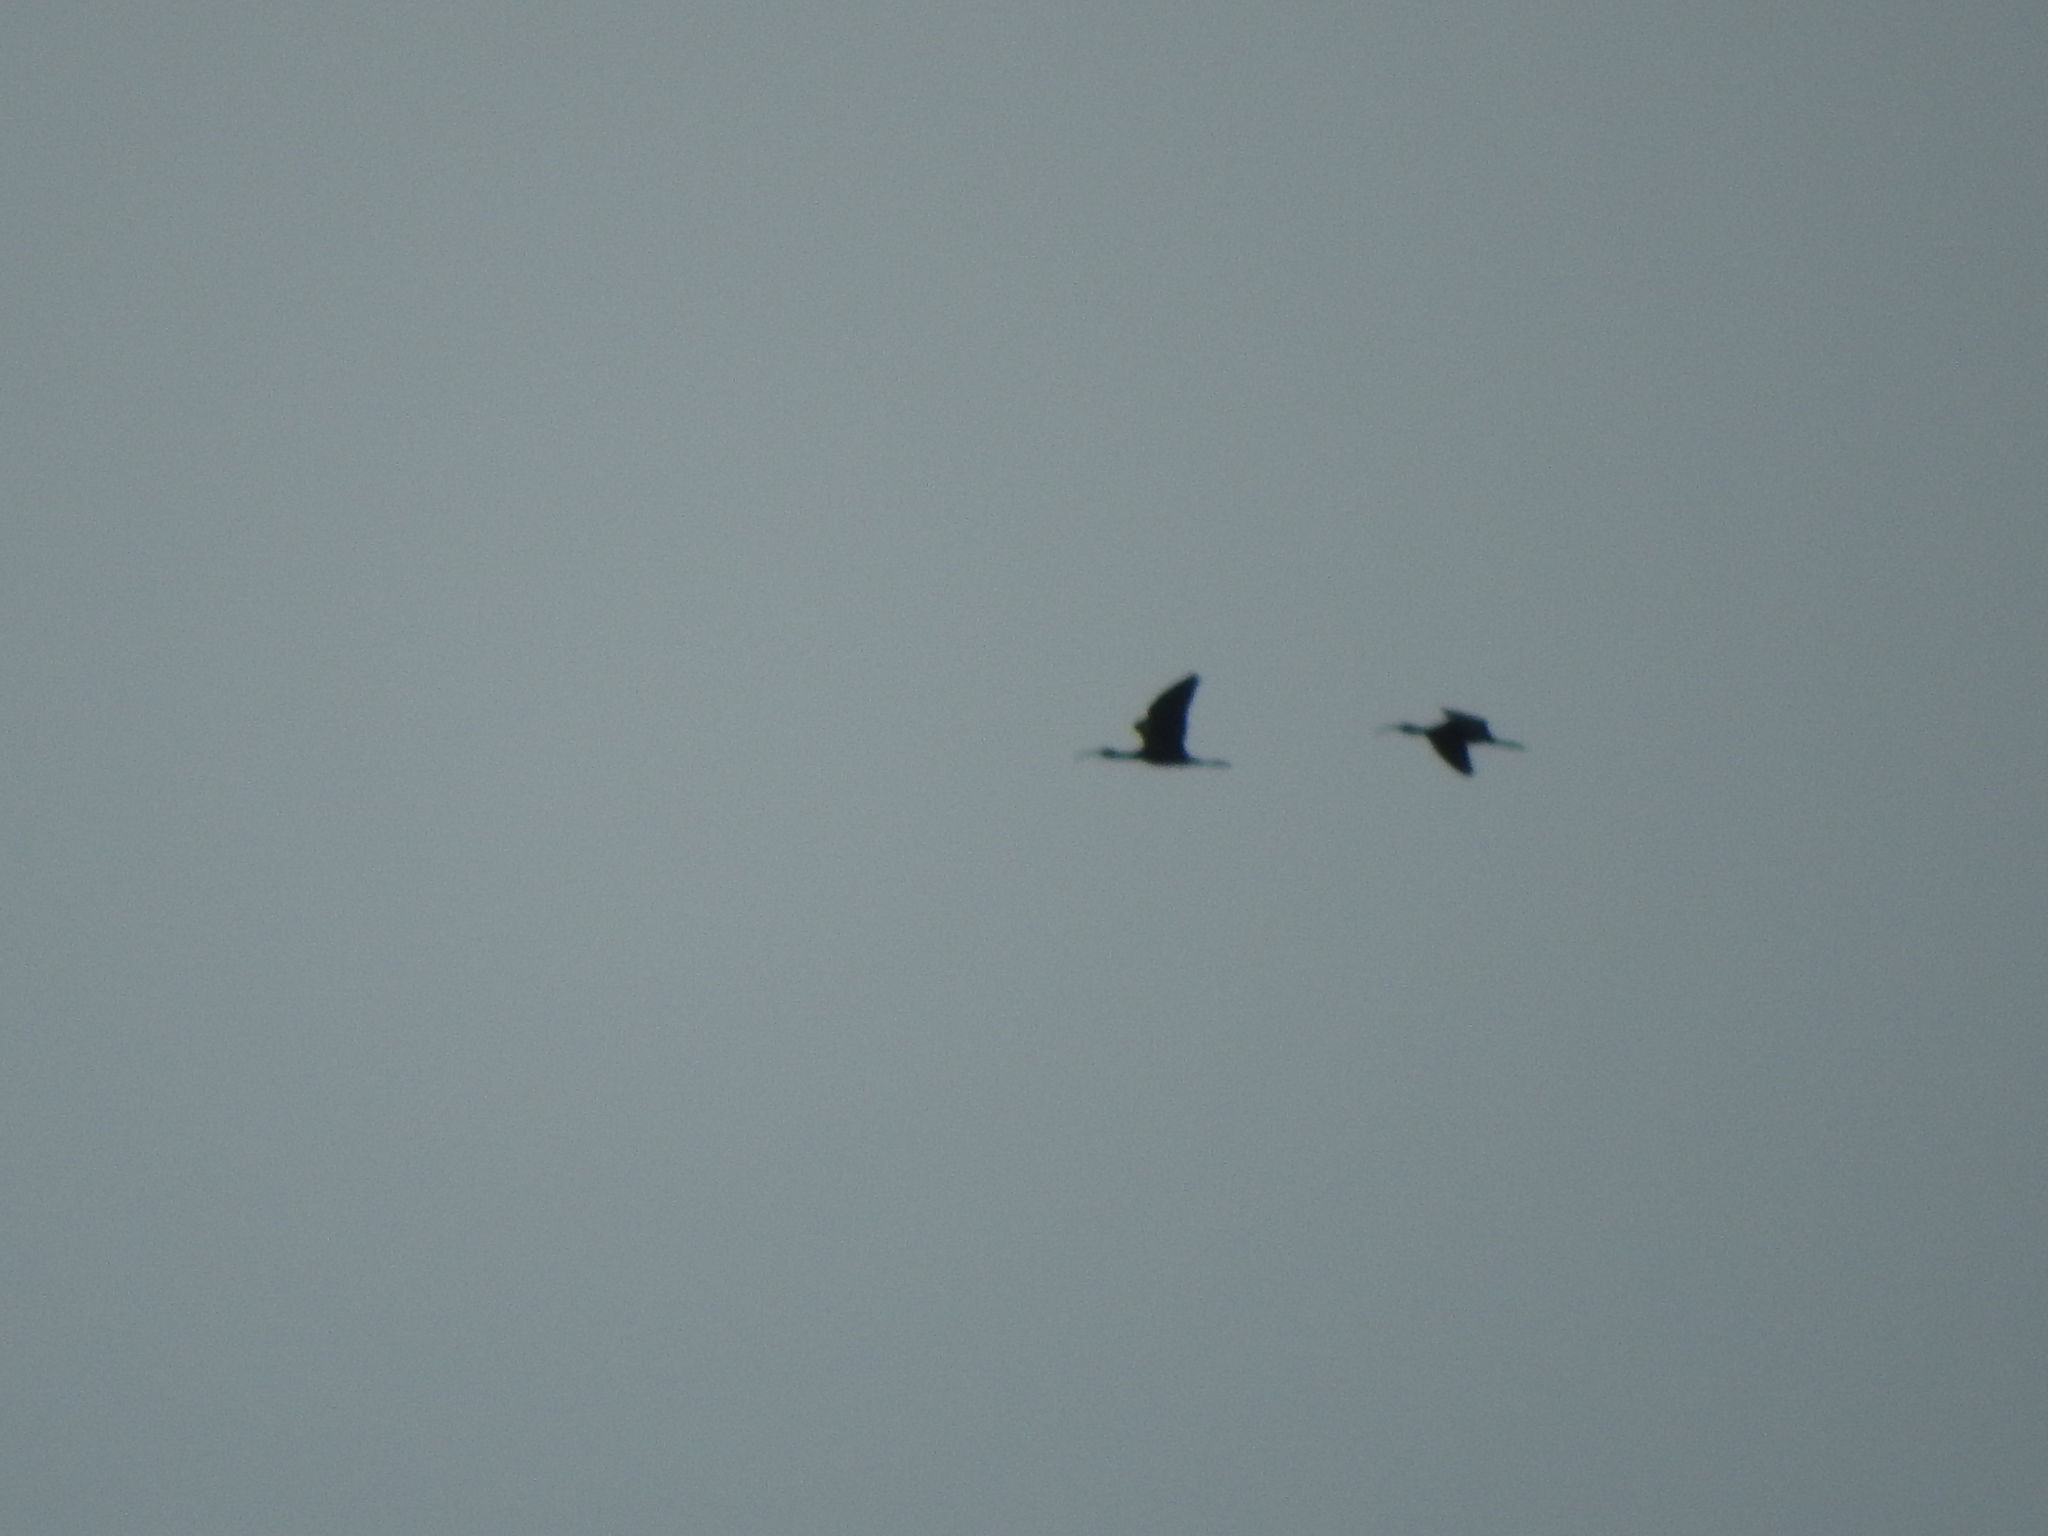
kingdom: Animalia
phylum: Chordata
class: Aves
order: Pelecaniformes
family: Threskiornithidae
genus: Plegadis
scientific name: Plegadis chihi
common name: White-faced ibis
